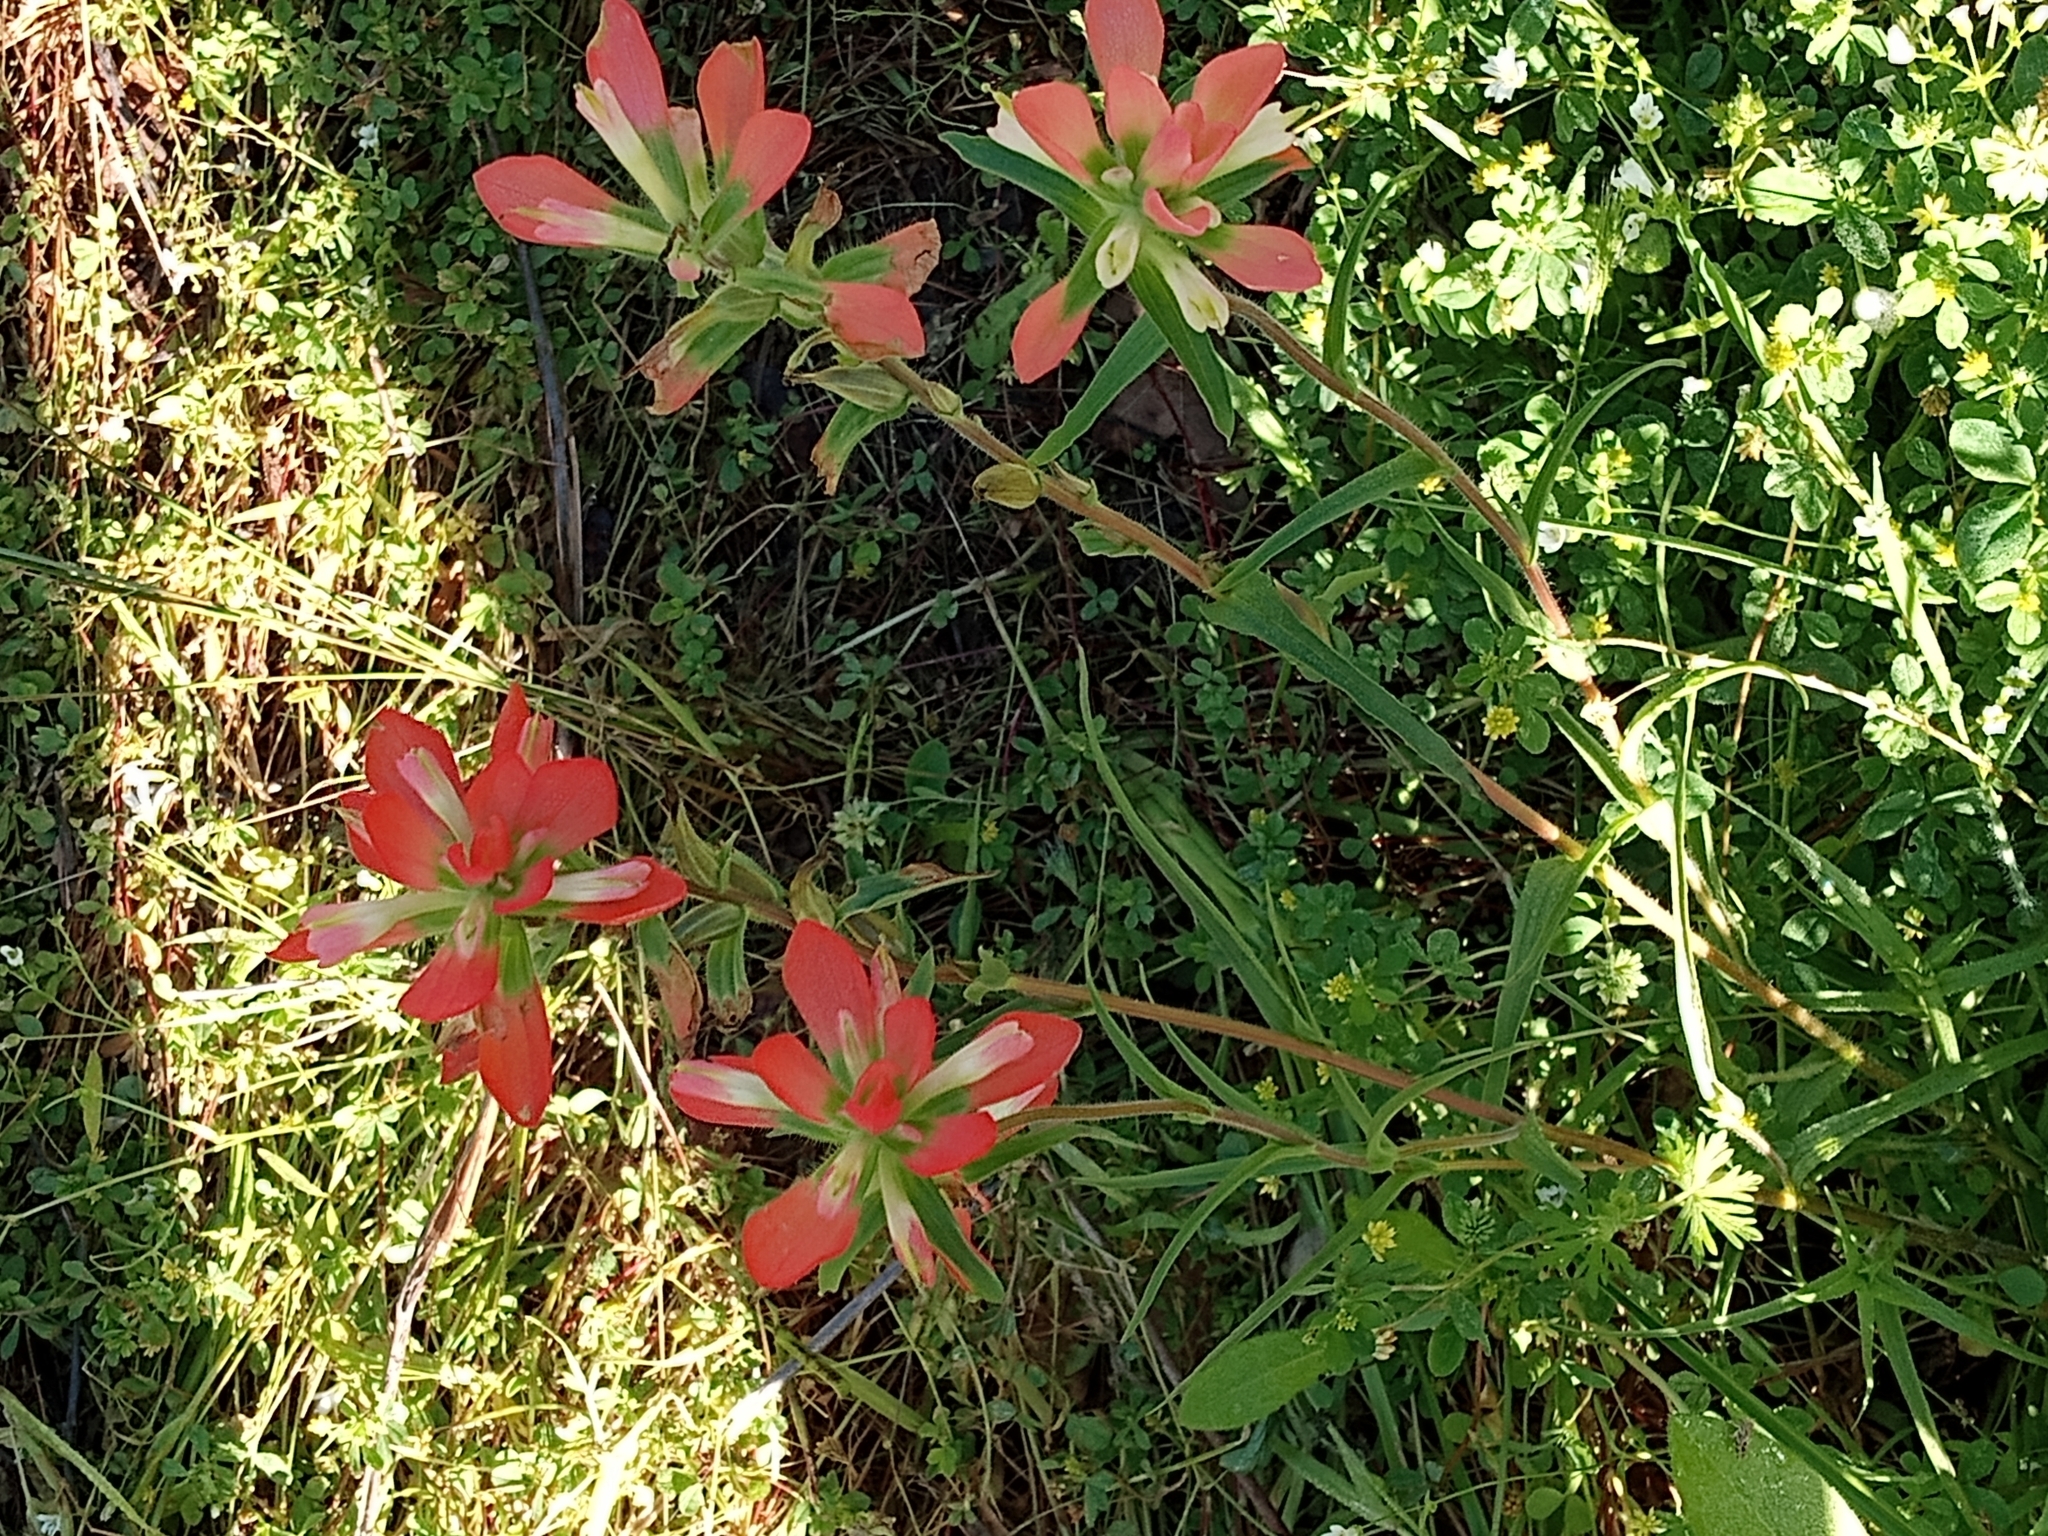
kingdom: Plantae
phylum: Tracheophyta
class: Magnoliopsida
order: Lamiales
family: Orobanchaceae
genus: Castilleja
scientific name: Castilleja indivisa
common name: Texas paintbrush
